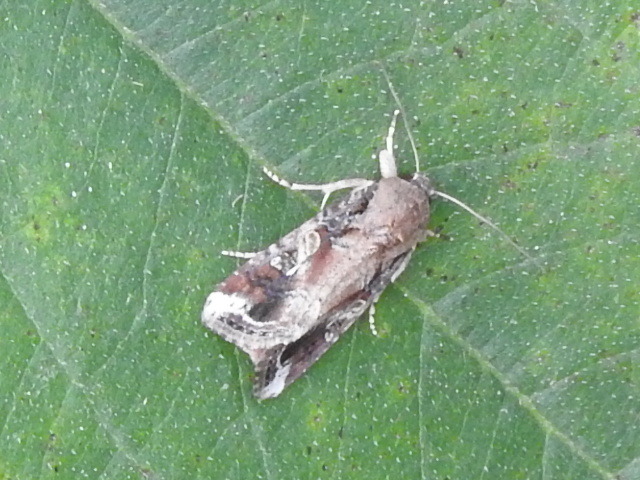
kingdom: Animalia
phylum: Arthropoda
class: Insecta
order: Lepidoptera
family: Noctuidae
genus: Spodoptera
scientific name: Spodoptera frugiperda
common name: Fall armyworm
